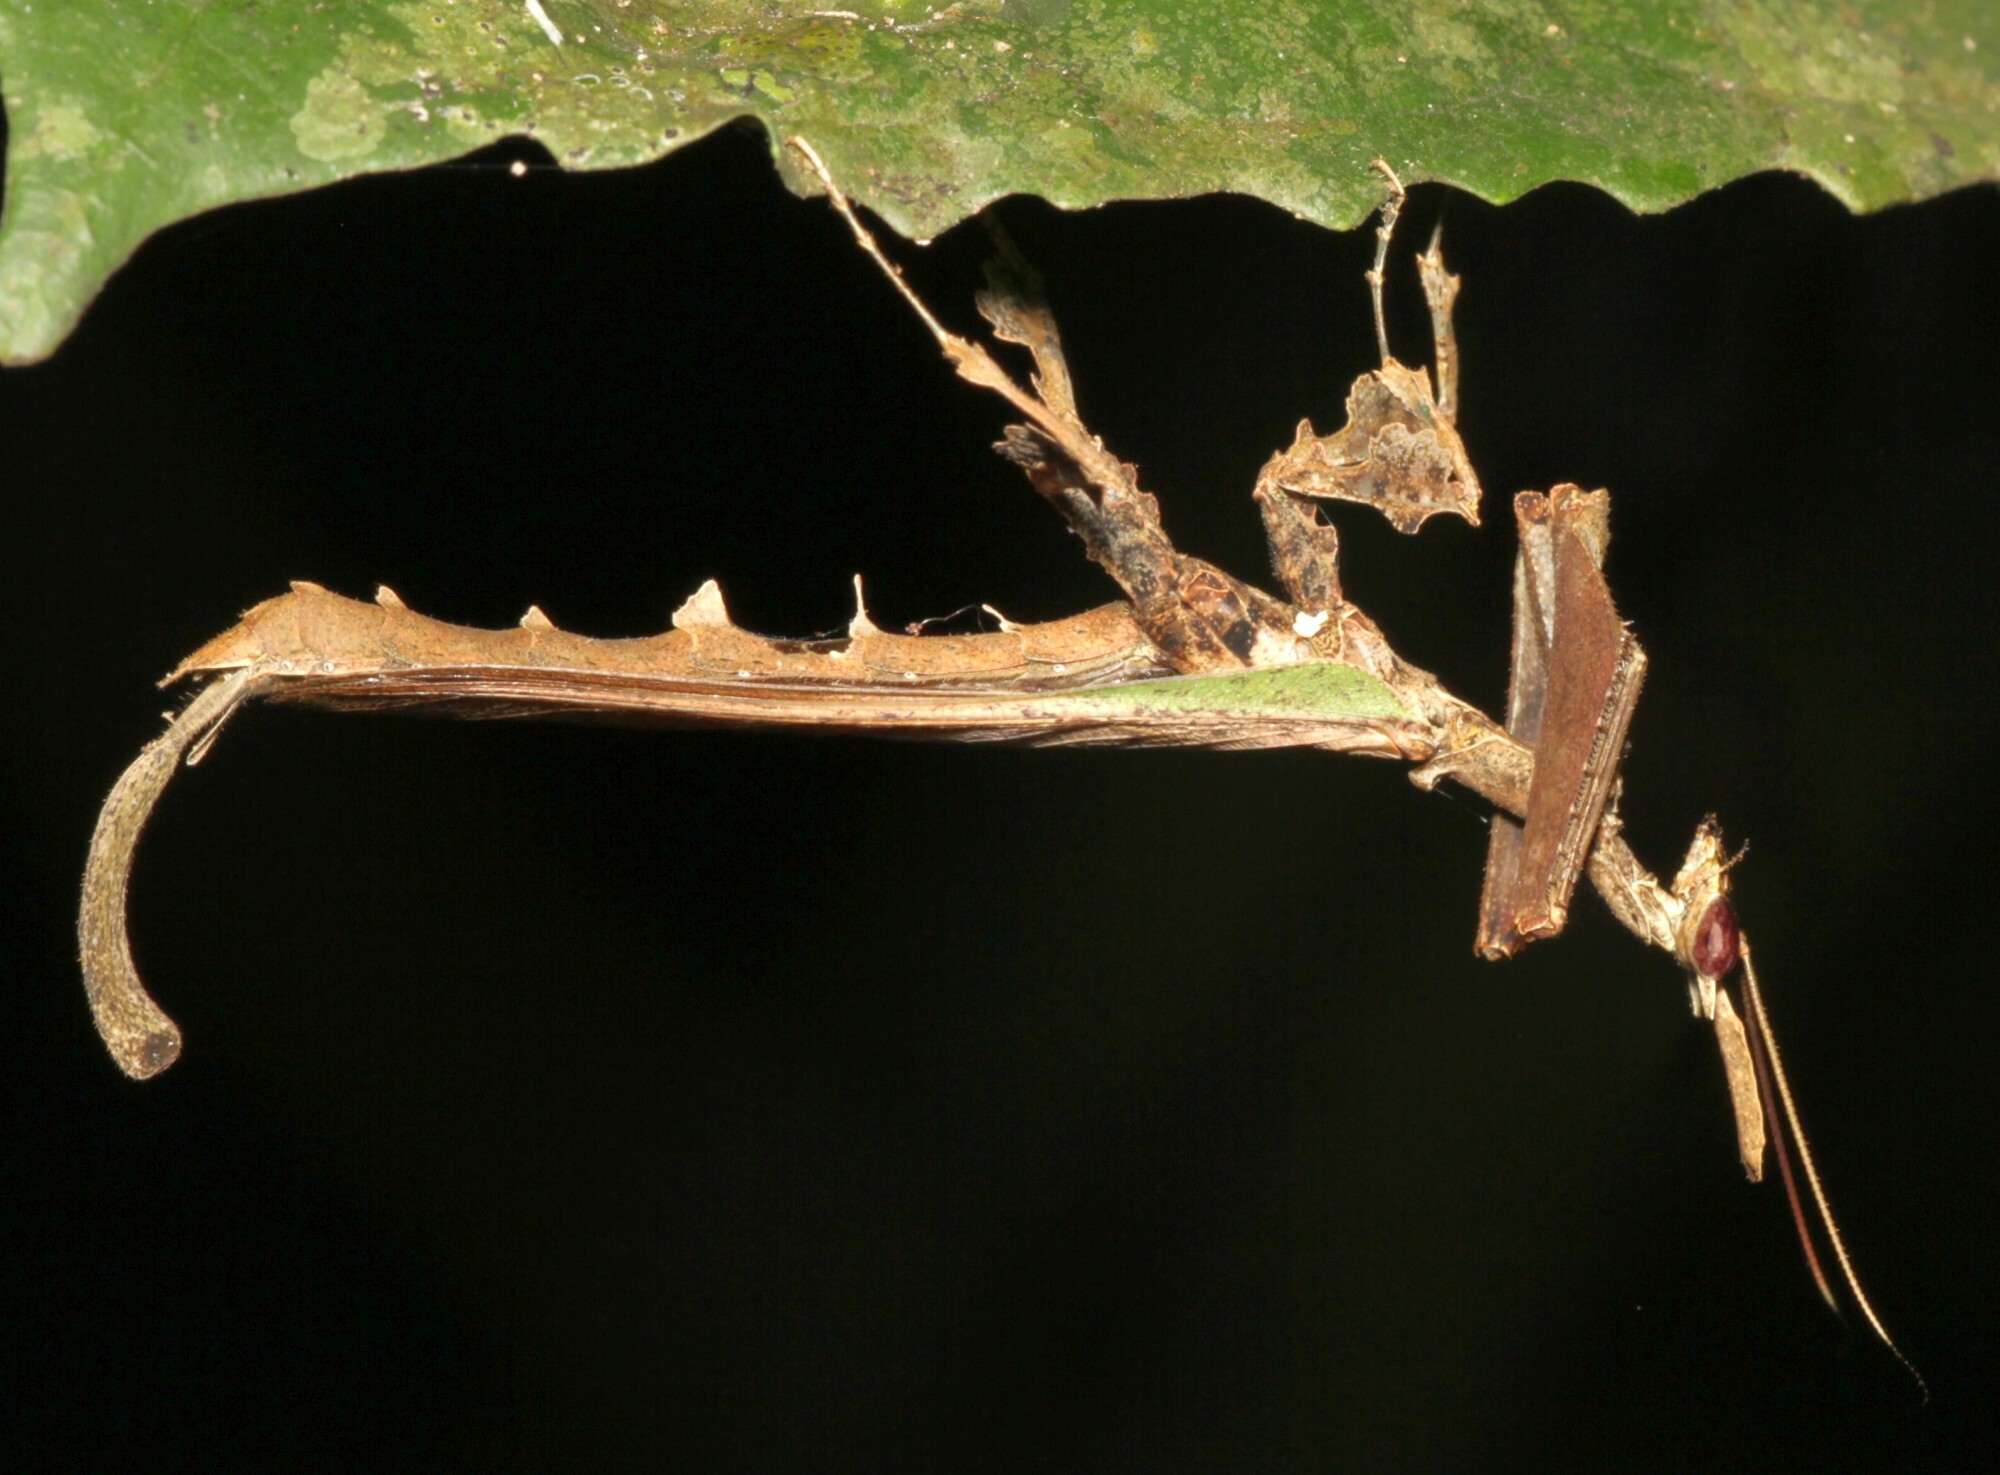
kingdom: Animalia
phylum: Arthropoda
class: Insecta
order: Mantodea
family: Acanthopidae
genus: Stenophylla
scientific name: Stenophylla lobivertex
